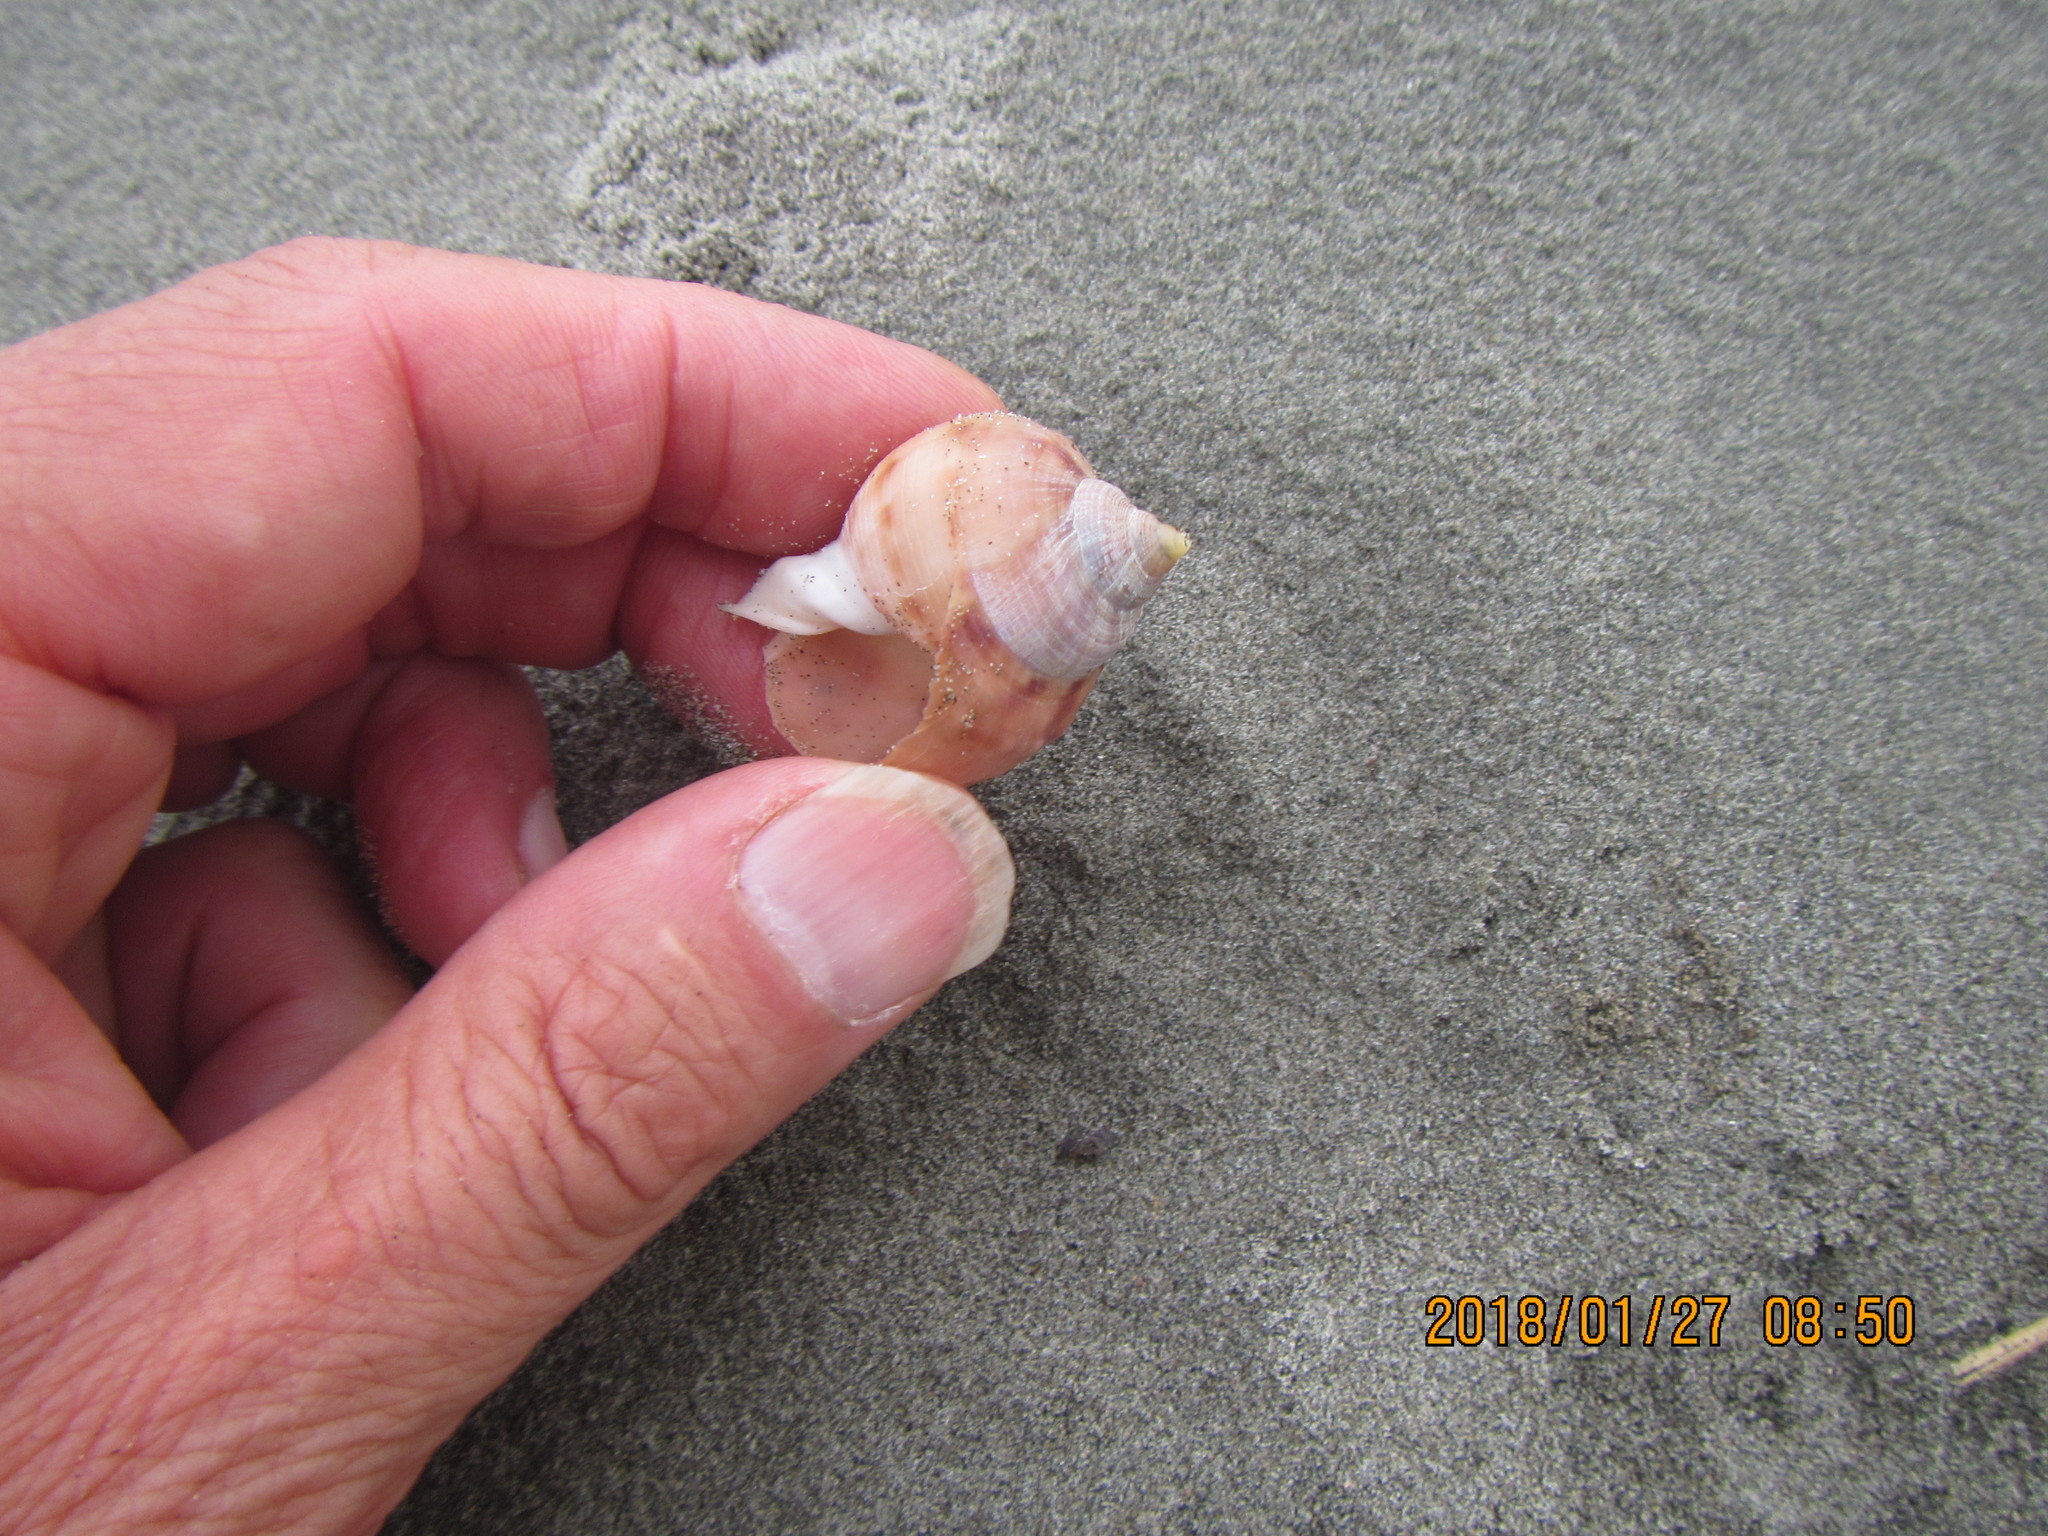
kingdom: Animalia
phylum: Mollusca
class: Gastropoda
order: Littorinimorpha
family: Cassidae
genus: Semicassis
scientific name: Semicassis pyrum
